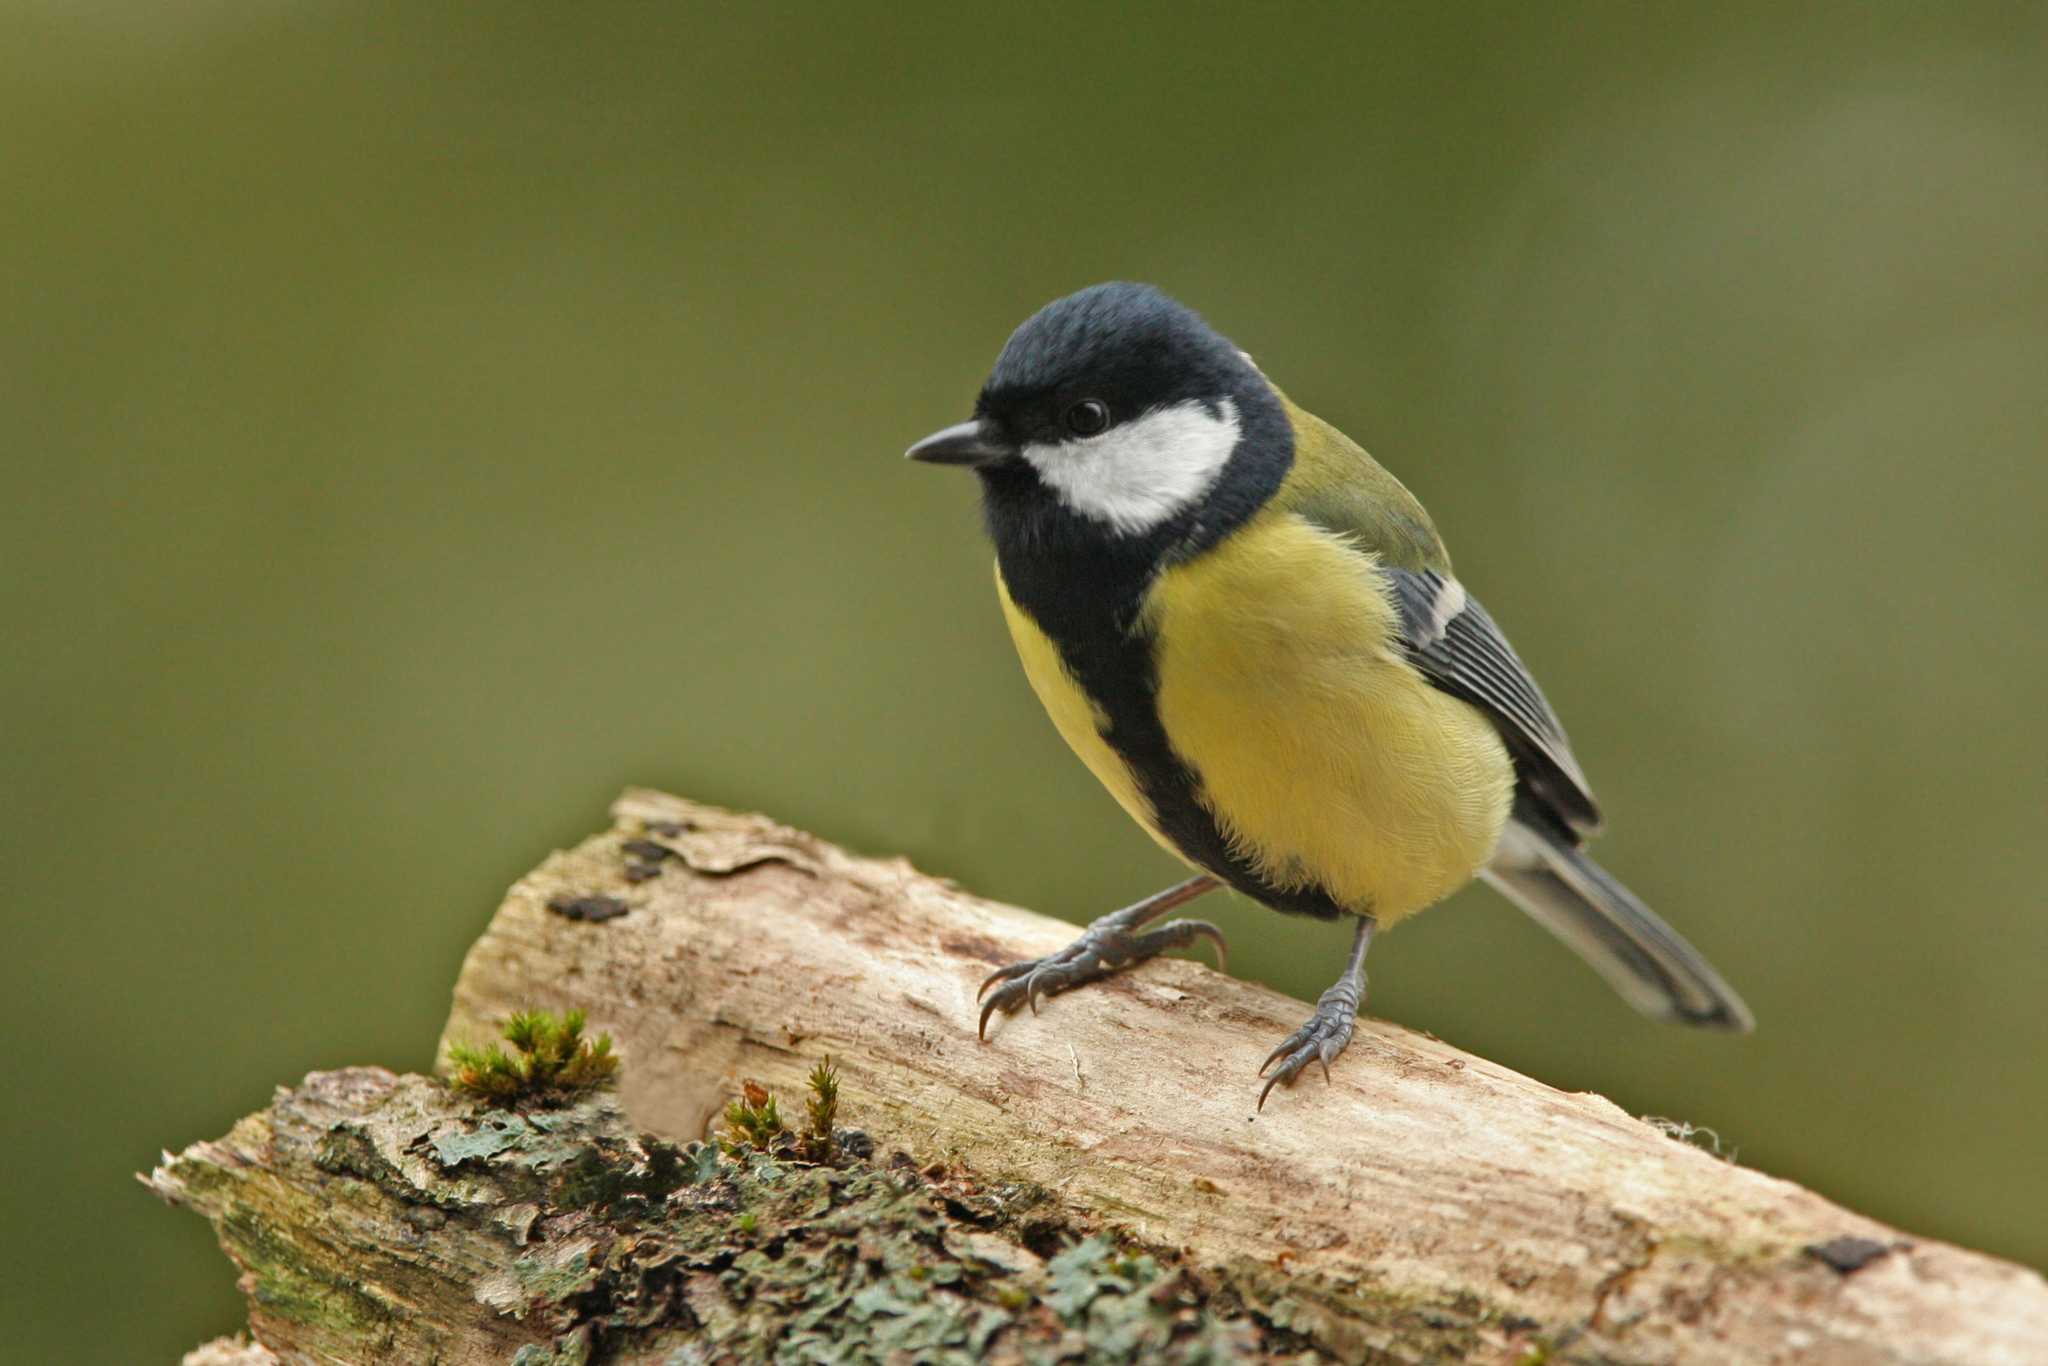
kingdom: Animalia
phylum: Chordata
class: Aves
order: Passeriformes
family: Paridae
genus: Parus
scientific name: Parus major
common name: Great tit
